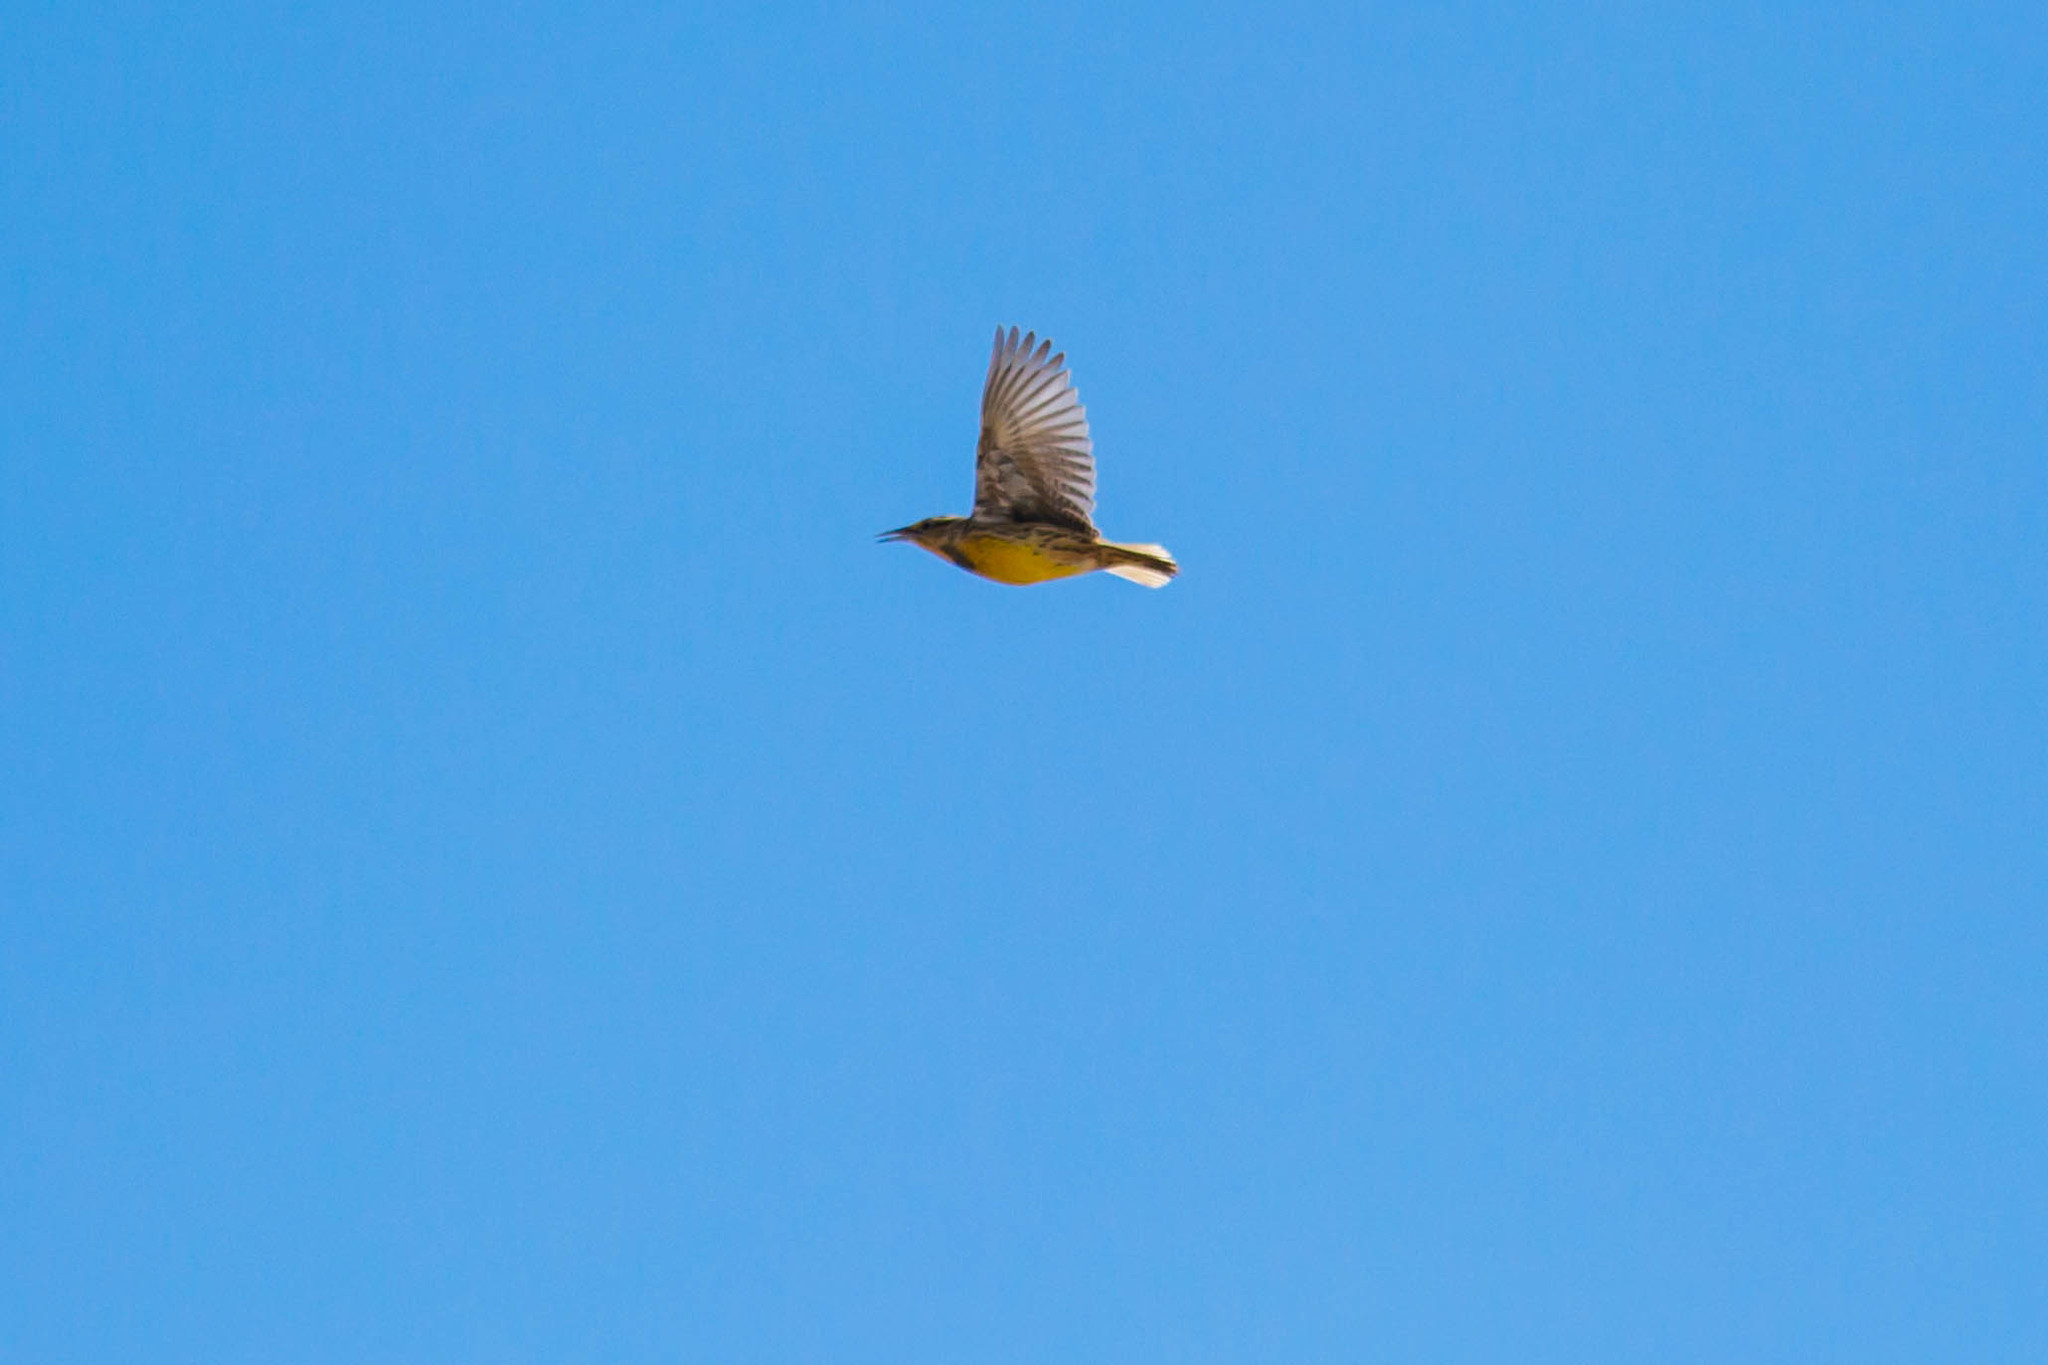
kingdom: Animalia
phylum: Chordata
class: Aves
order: Passeriformes
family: Icteridae
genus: Sturnella
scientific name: Sturnella magna
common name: Eastern meadowlark
